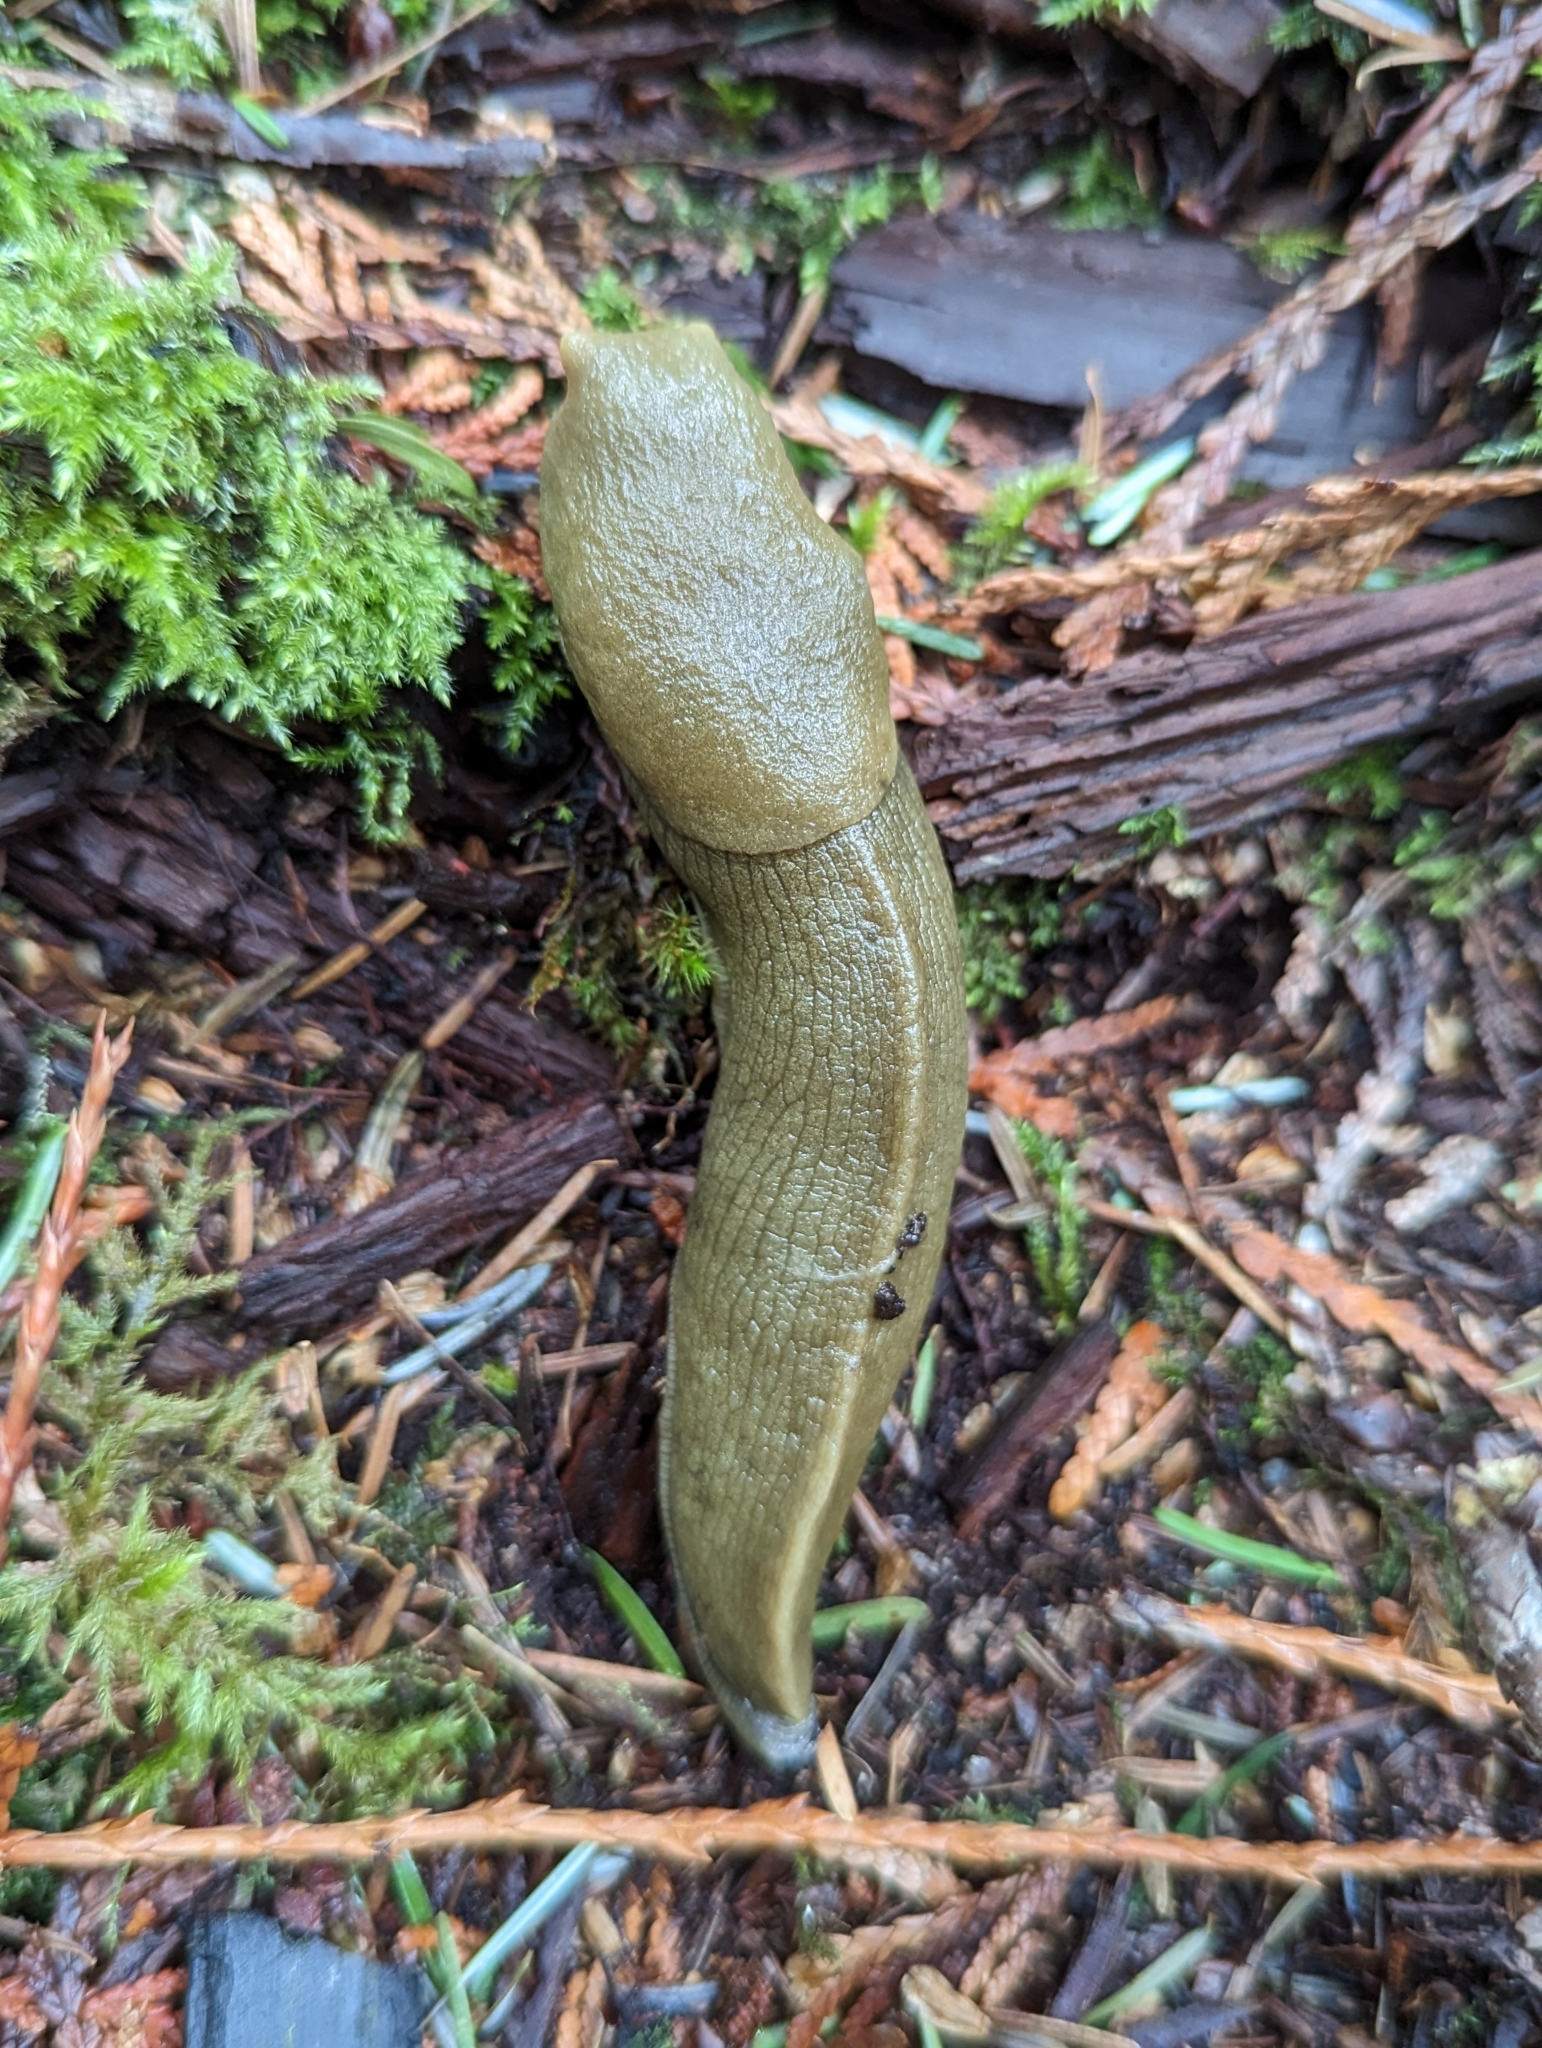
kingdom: Animalia
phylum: Mollusca
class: Gastropoda
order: Stylommatophora
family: Ariolimacidae
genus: Ariolimax
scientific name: Ariolimax columbianus
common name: Pacific banana slug
